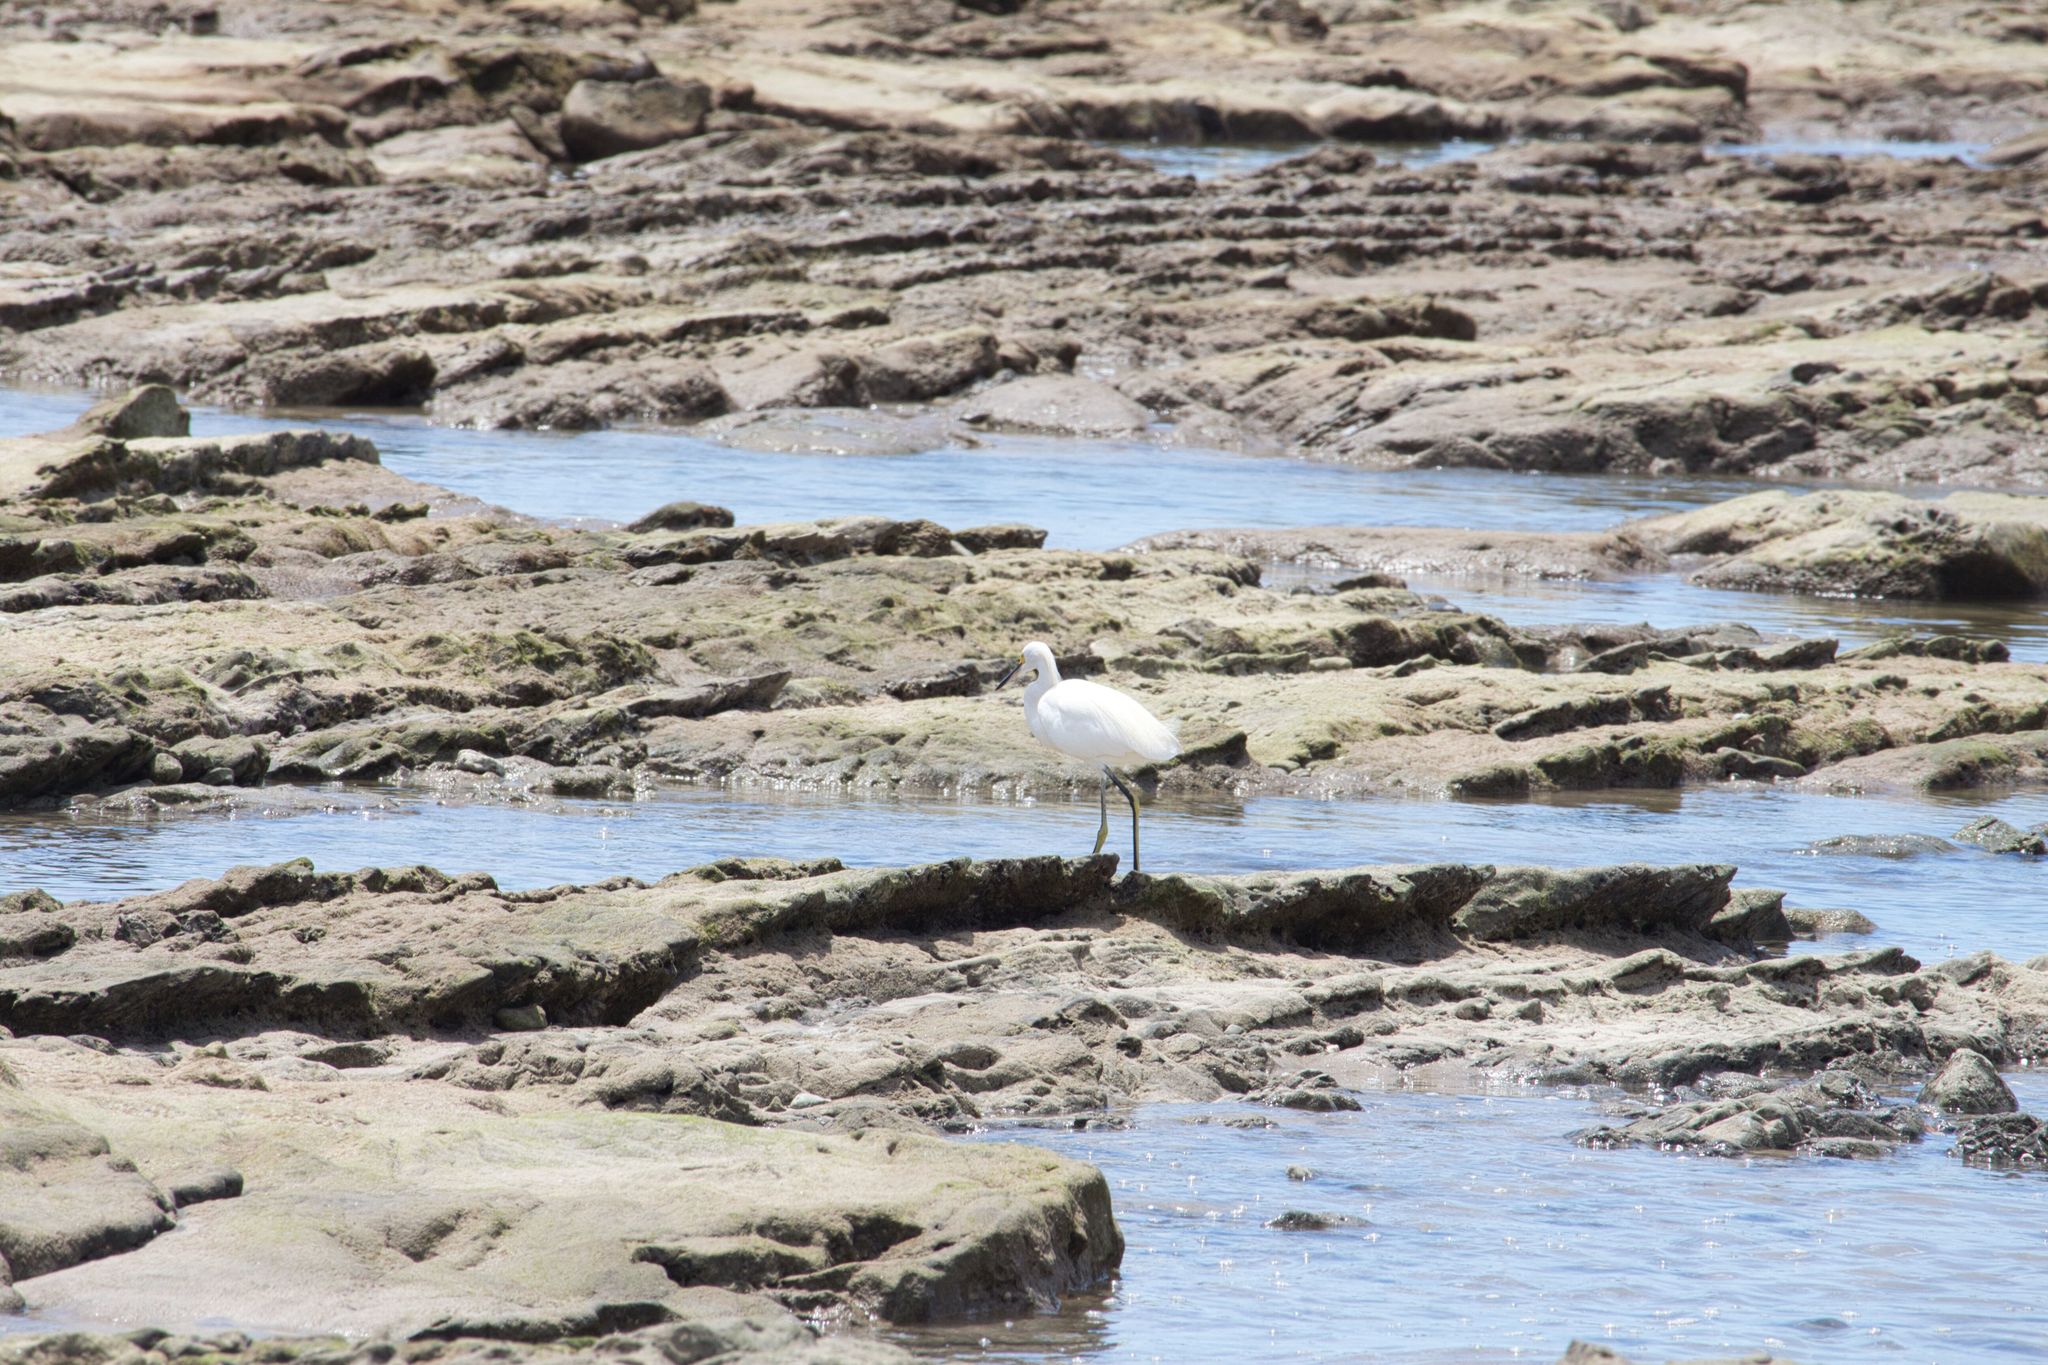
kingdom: Animalia
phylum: Chordata
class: Aves
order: Pelecaniformes
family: Ardeidae
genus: Egretta
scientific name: Egretta thula
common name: Snowy egret
